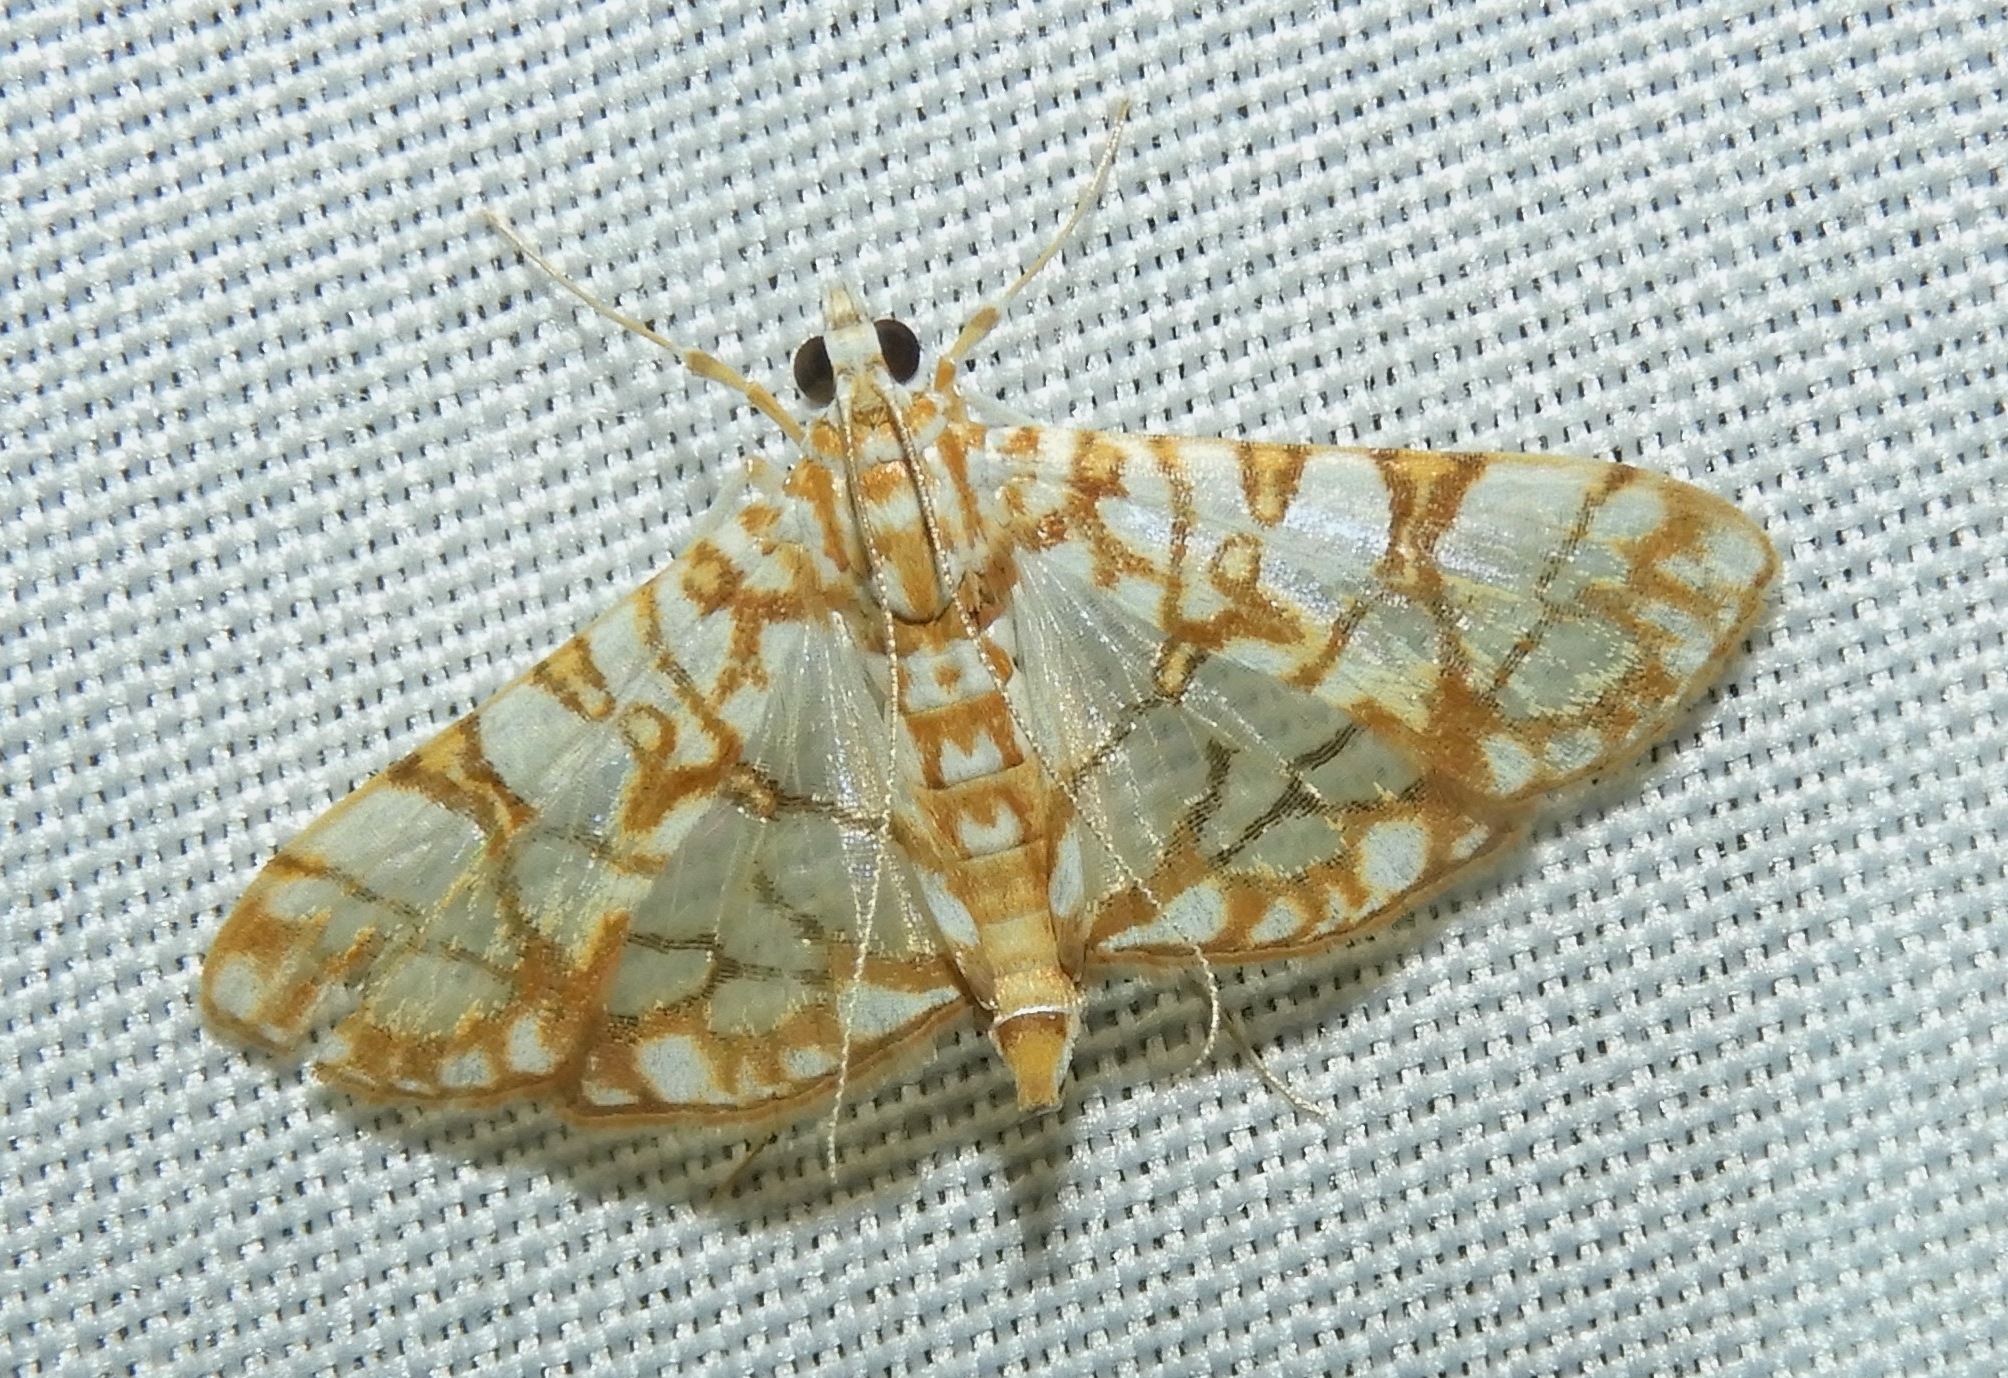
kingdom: Animalia
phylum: Arthropoda
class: Insecta
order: Lepidoptera
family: Crambidae
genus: Synclera
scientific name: Synclera traducalis
